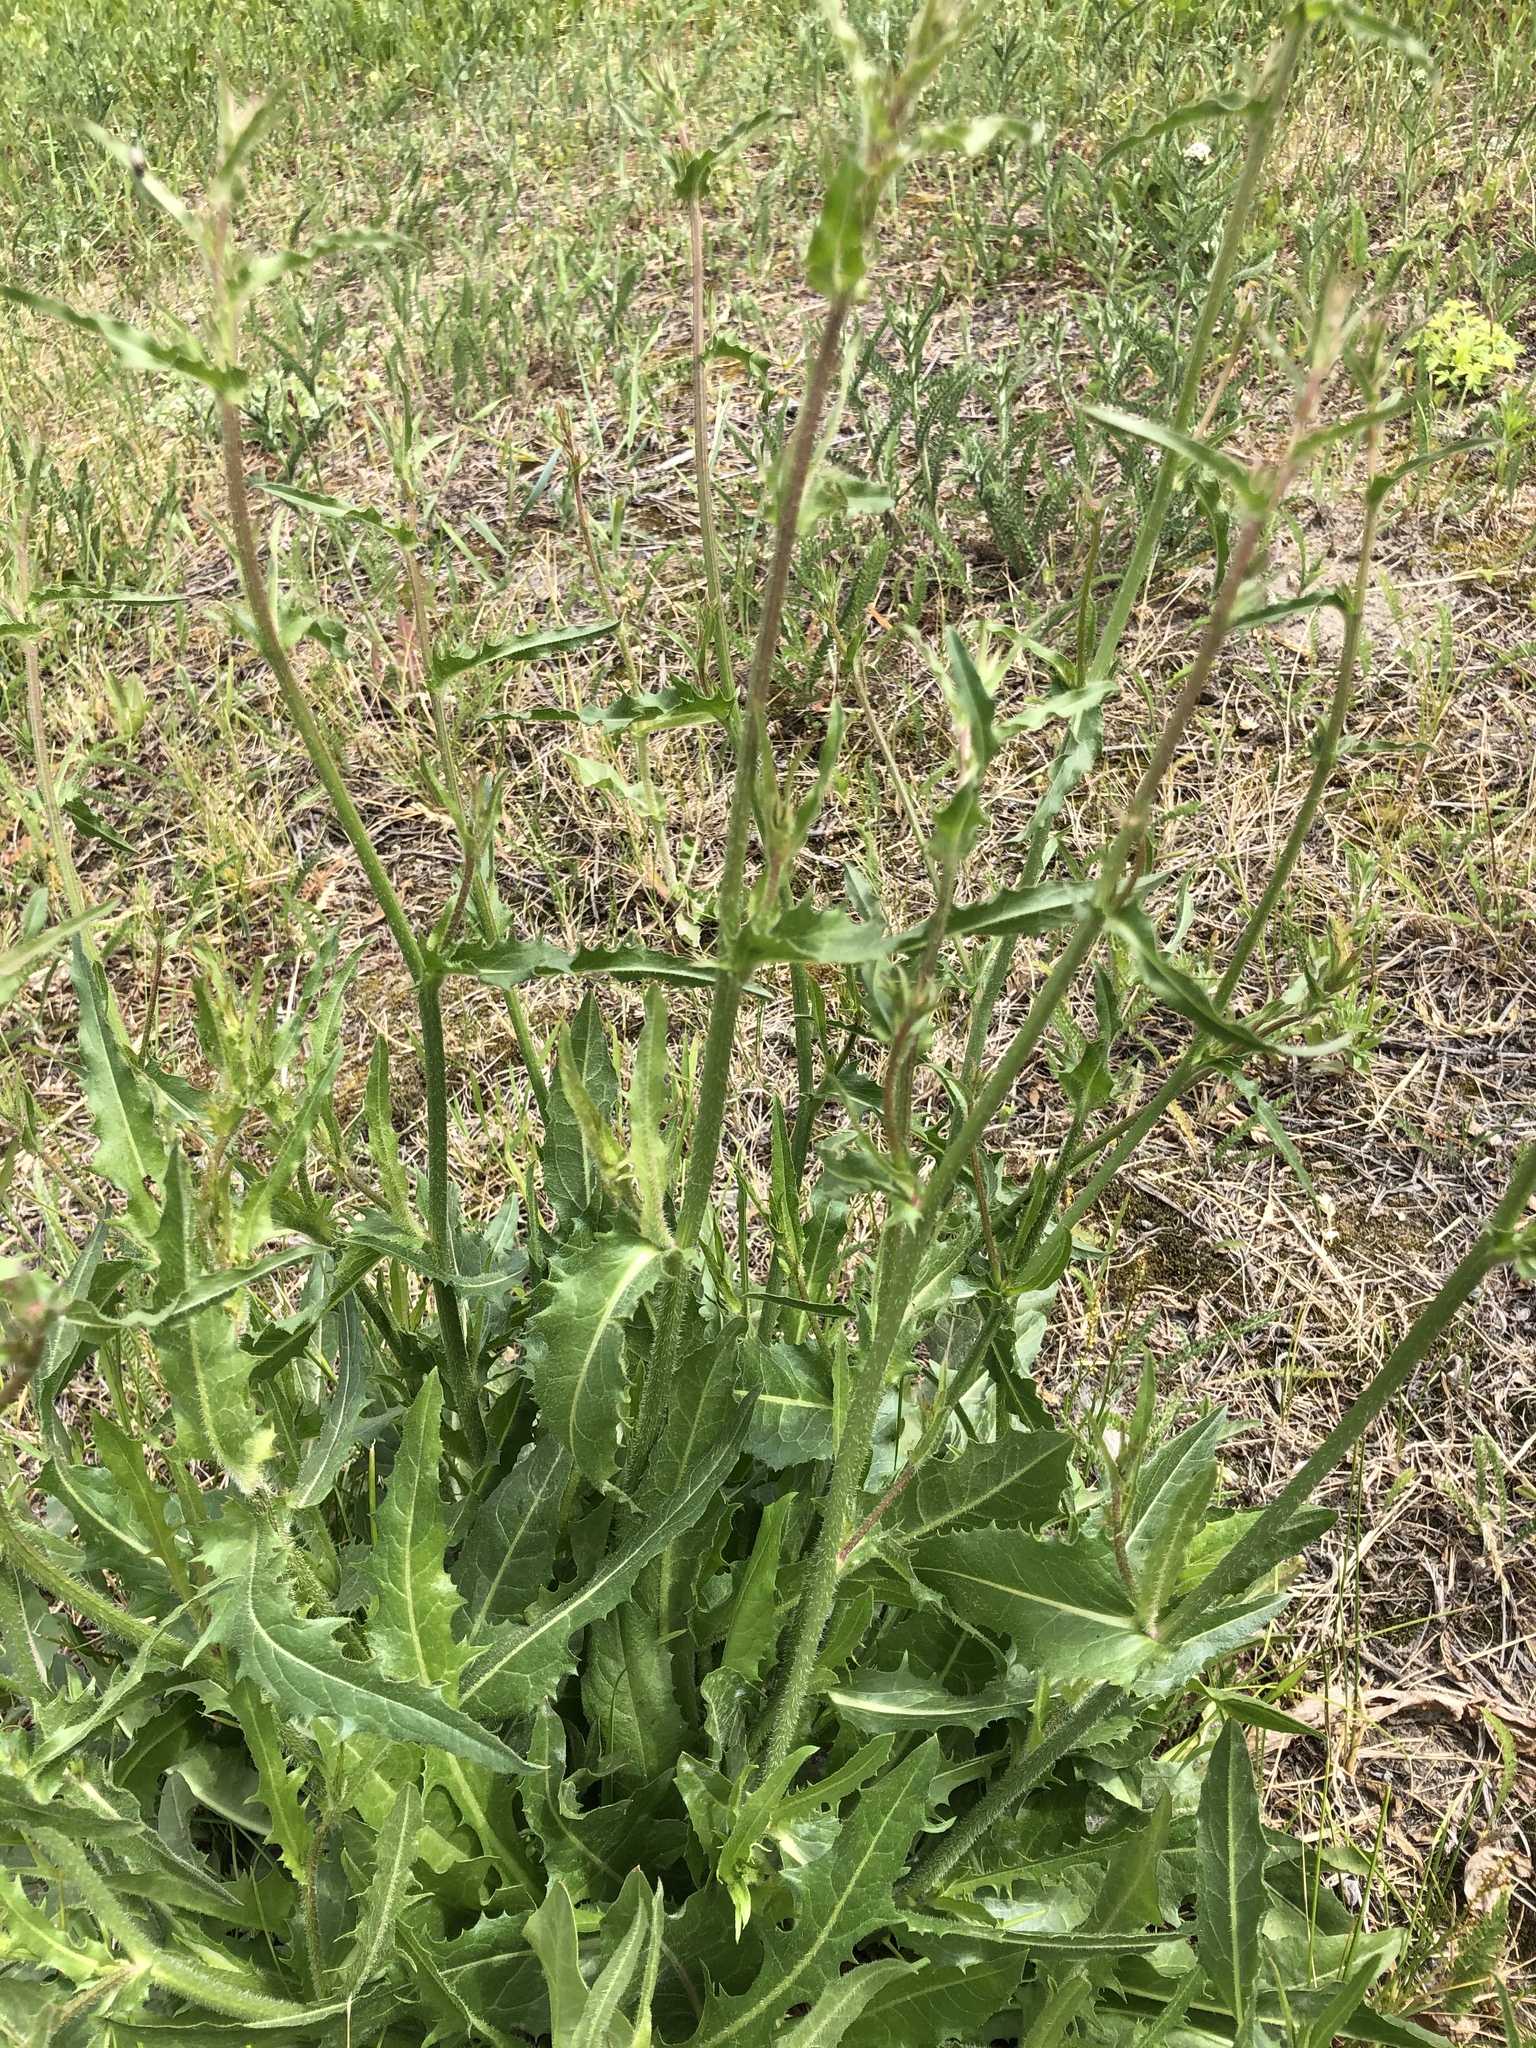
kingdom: Plantae
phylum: Tracheophyta
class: Magnoliopsida
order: Asterales
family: Asteraceae
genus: Cichorium
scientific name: Cichorium intybus
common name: Chicory
